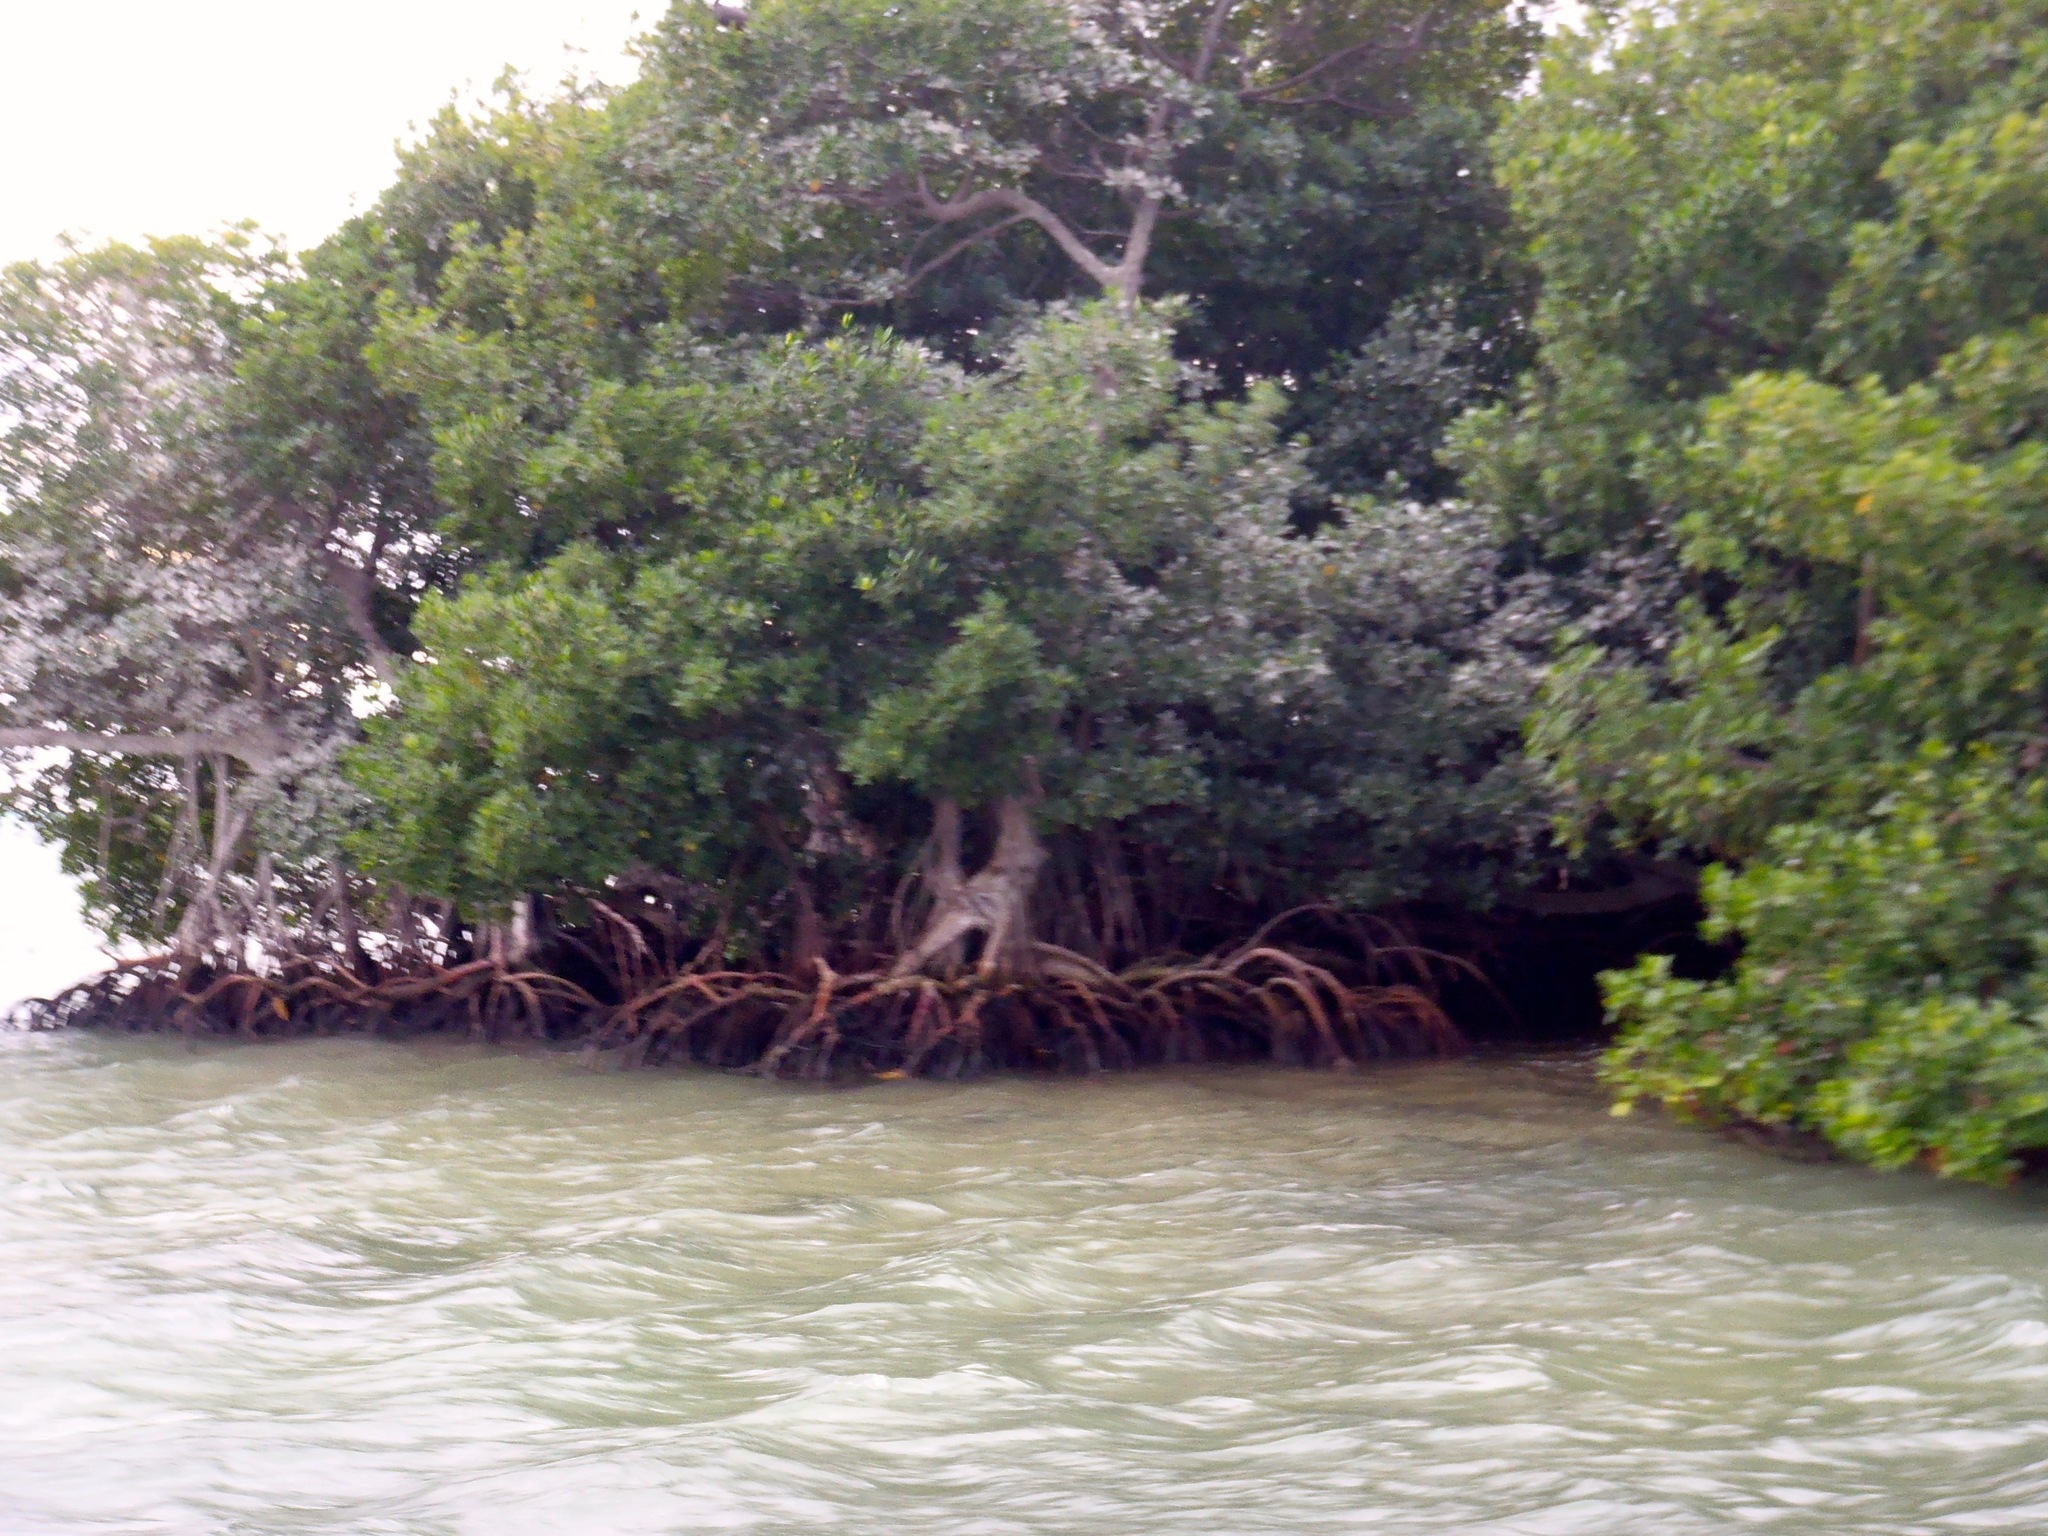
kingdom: Plantae
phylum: Tracheophyta
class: Magnoliopsida
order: Malpighiales
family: Rhizophoraceae
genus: Rhizophora
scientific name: Rhizophora mangle
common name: Red mangrove
